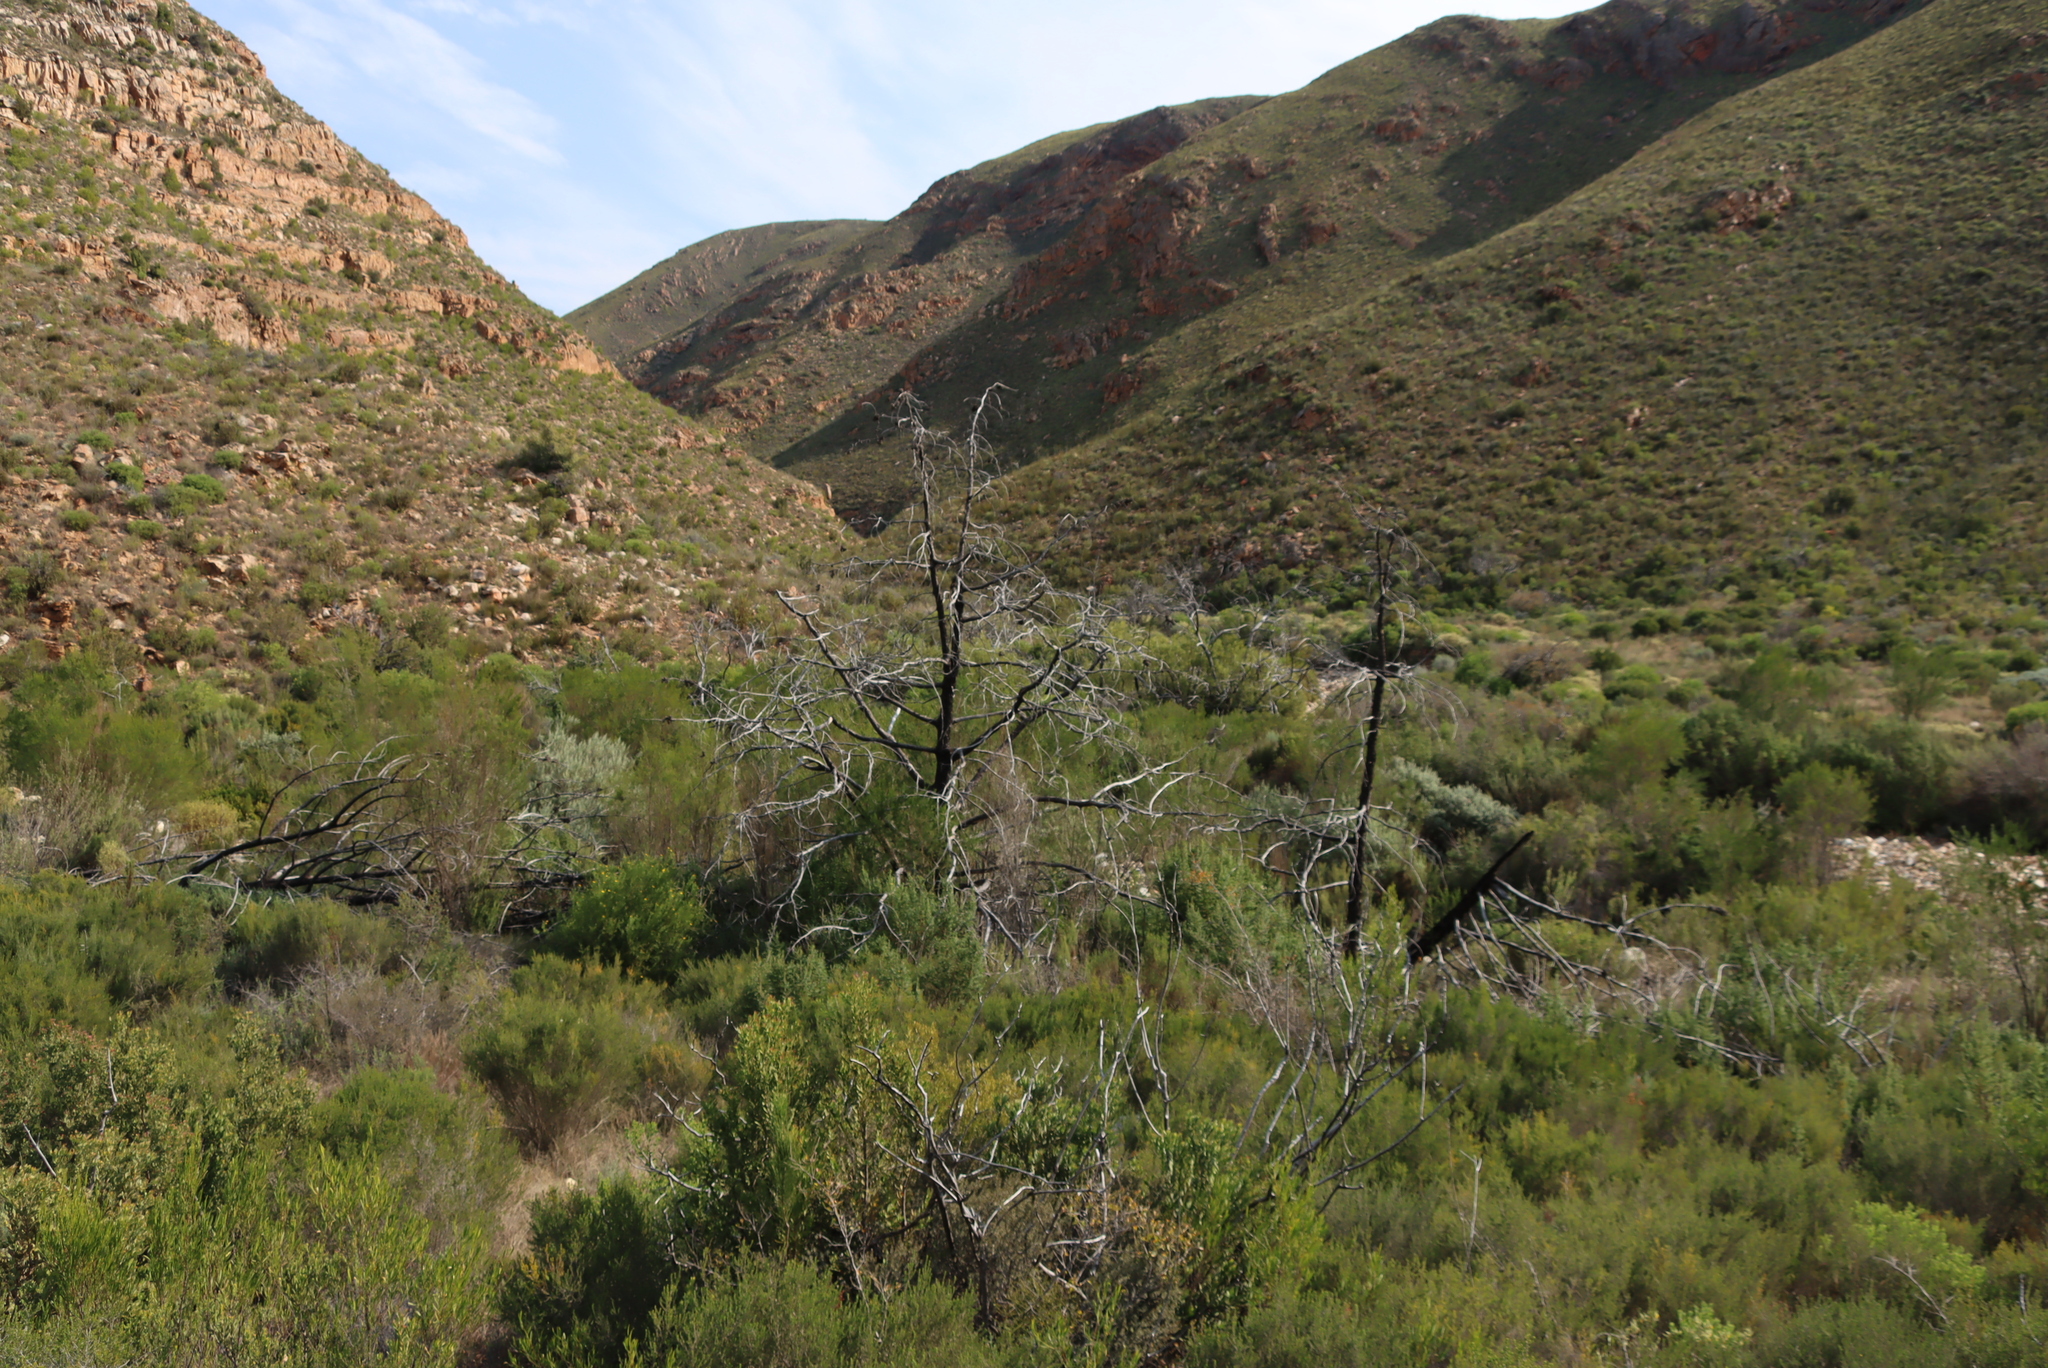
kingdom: Plantae
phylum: Tracheophyta
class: Pinopsida
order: Pinales
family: Cupressaceae
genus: Widdringtonia
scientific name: Widdringtonia schwarzii
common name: Baviaans cedar
